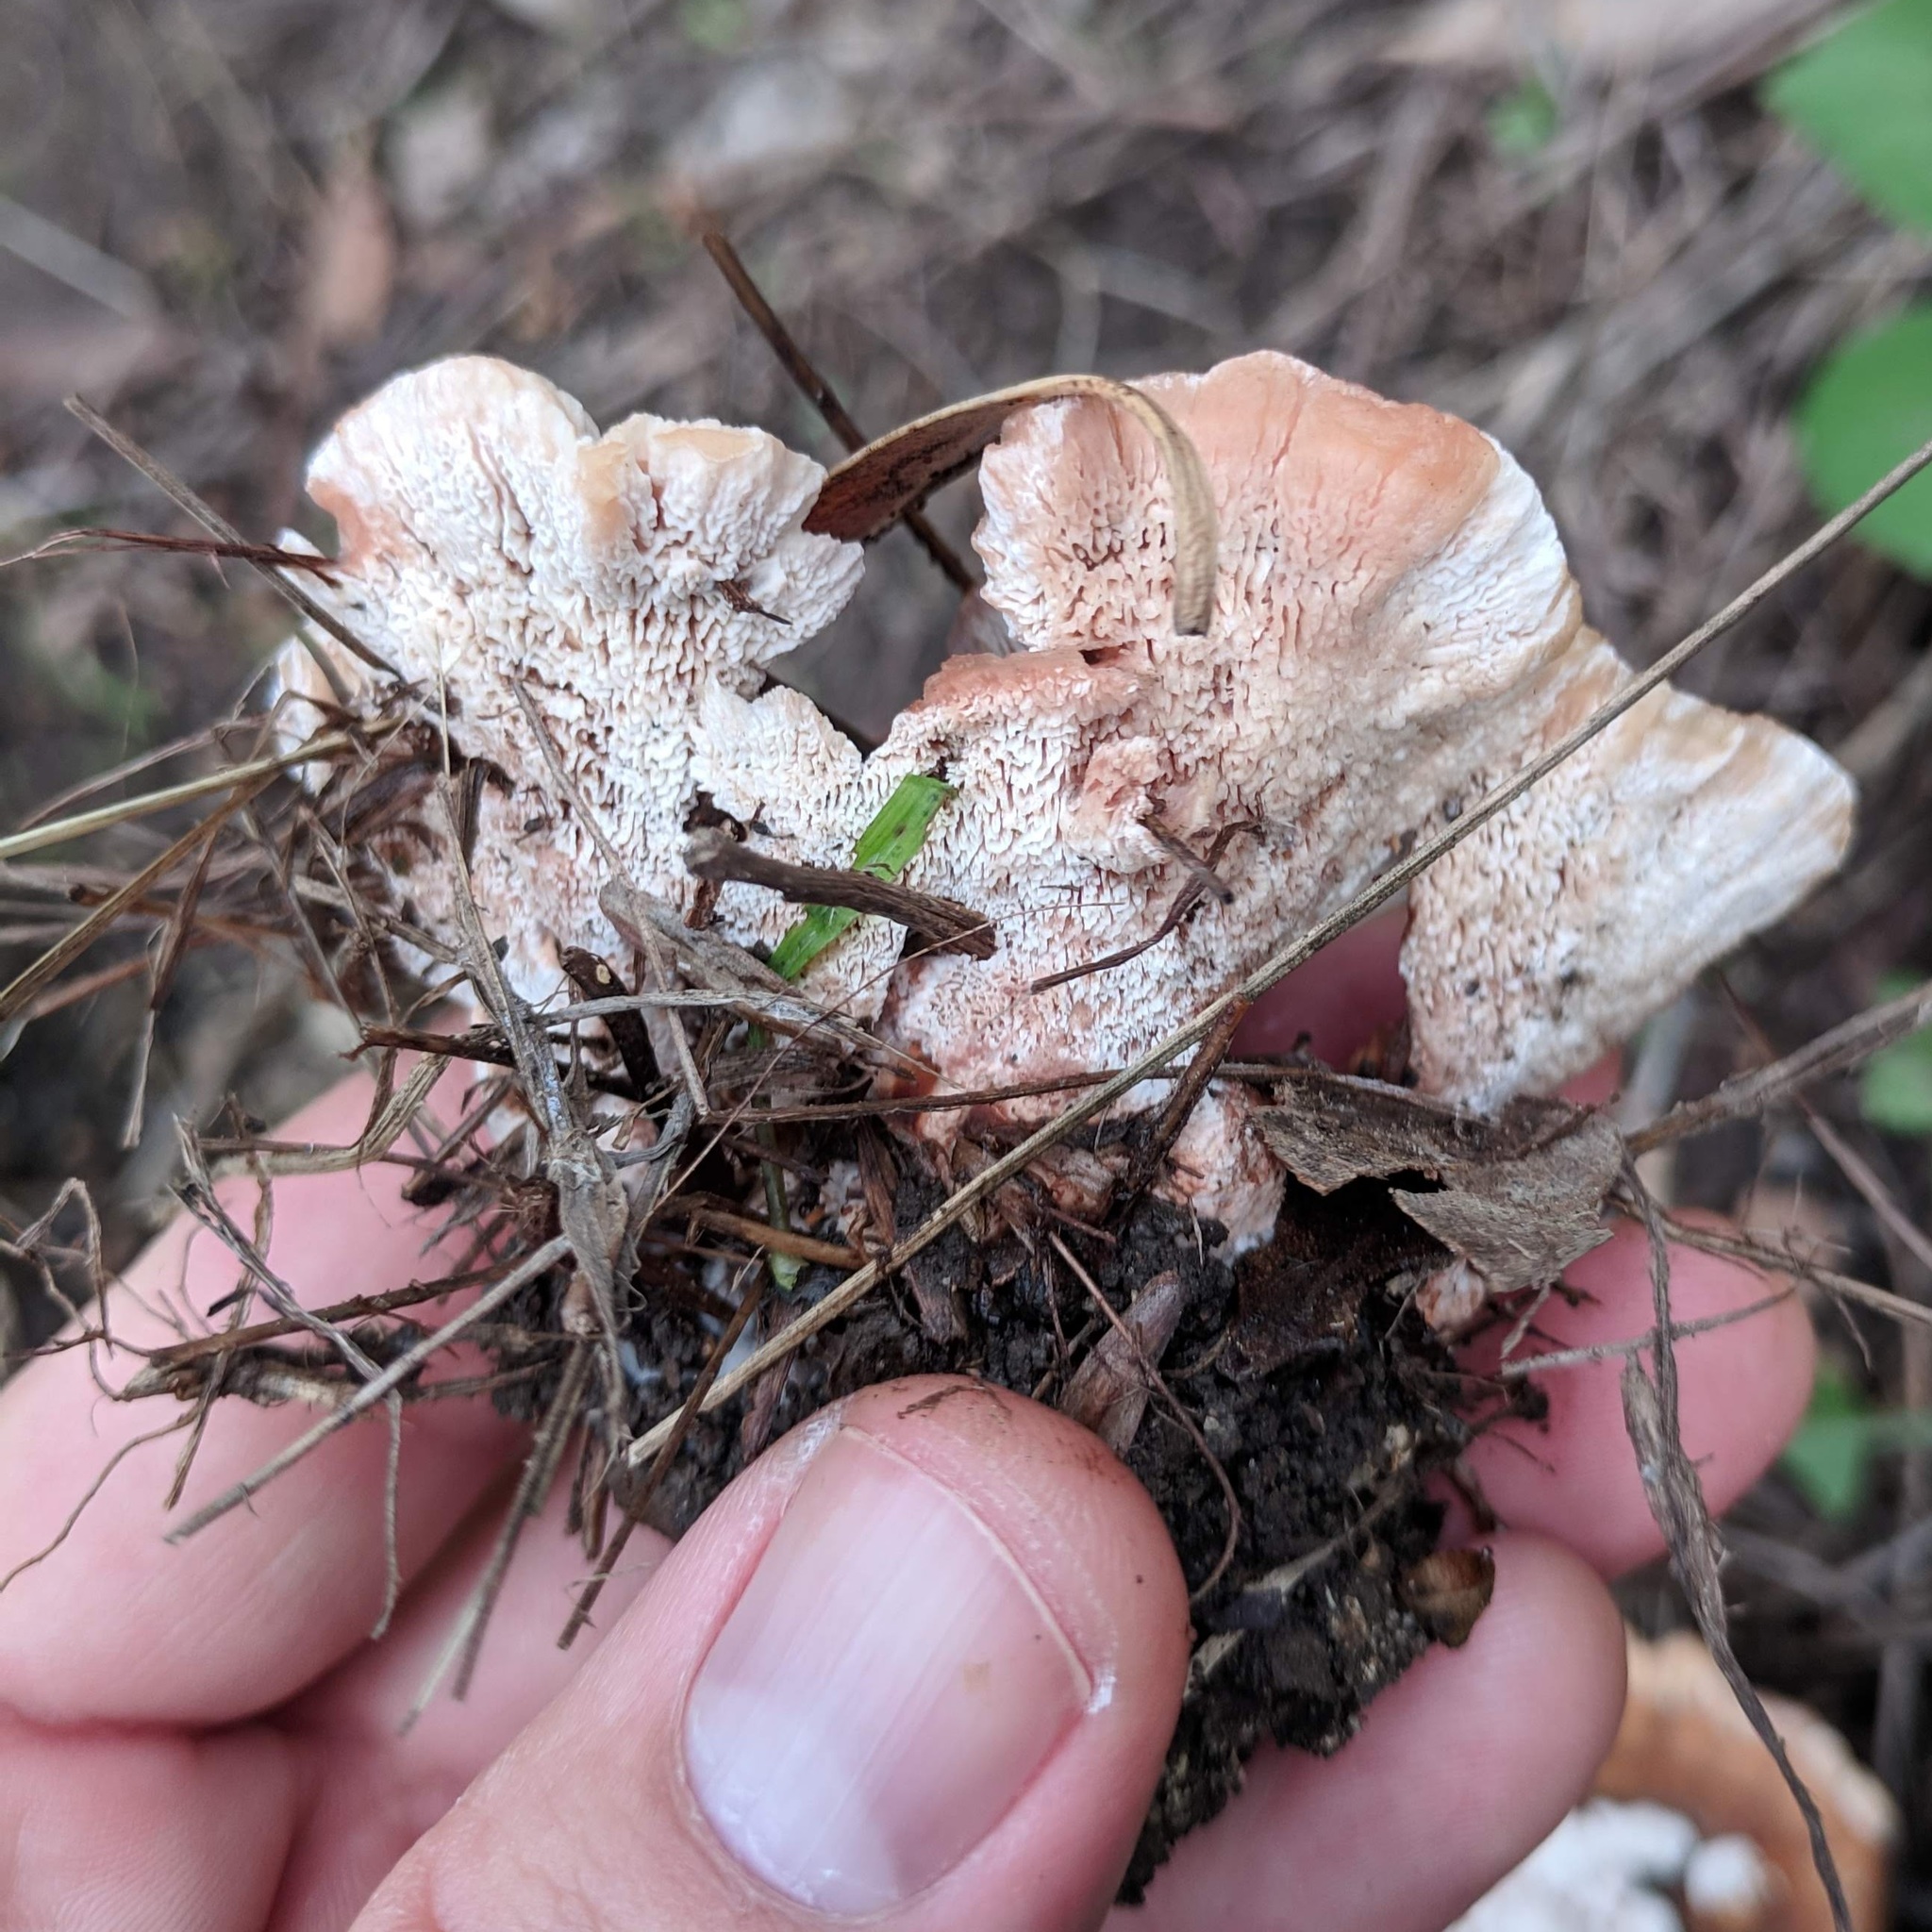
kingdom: Fungi
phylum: Basidiomycota
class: Agaricomycetes
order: Polyporales
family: Podoscyphaceae
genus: Abortiporus
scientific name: Abortiporus biennis
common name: Blushing rosette
